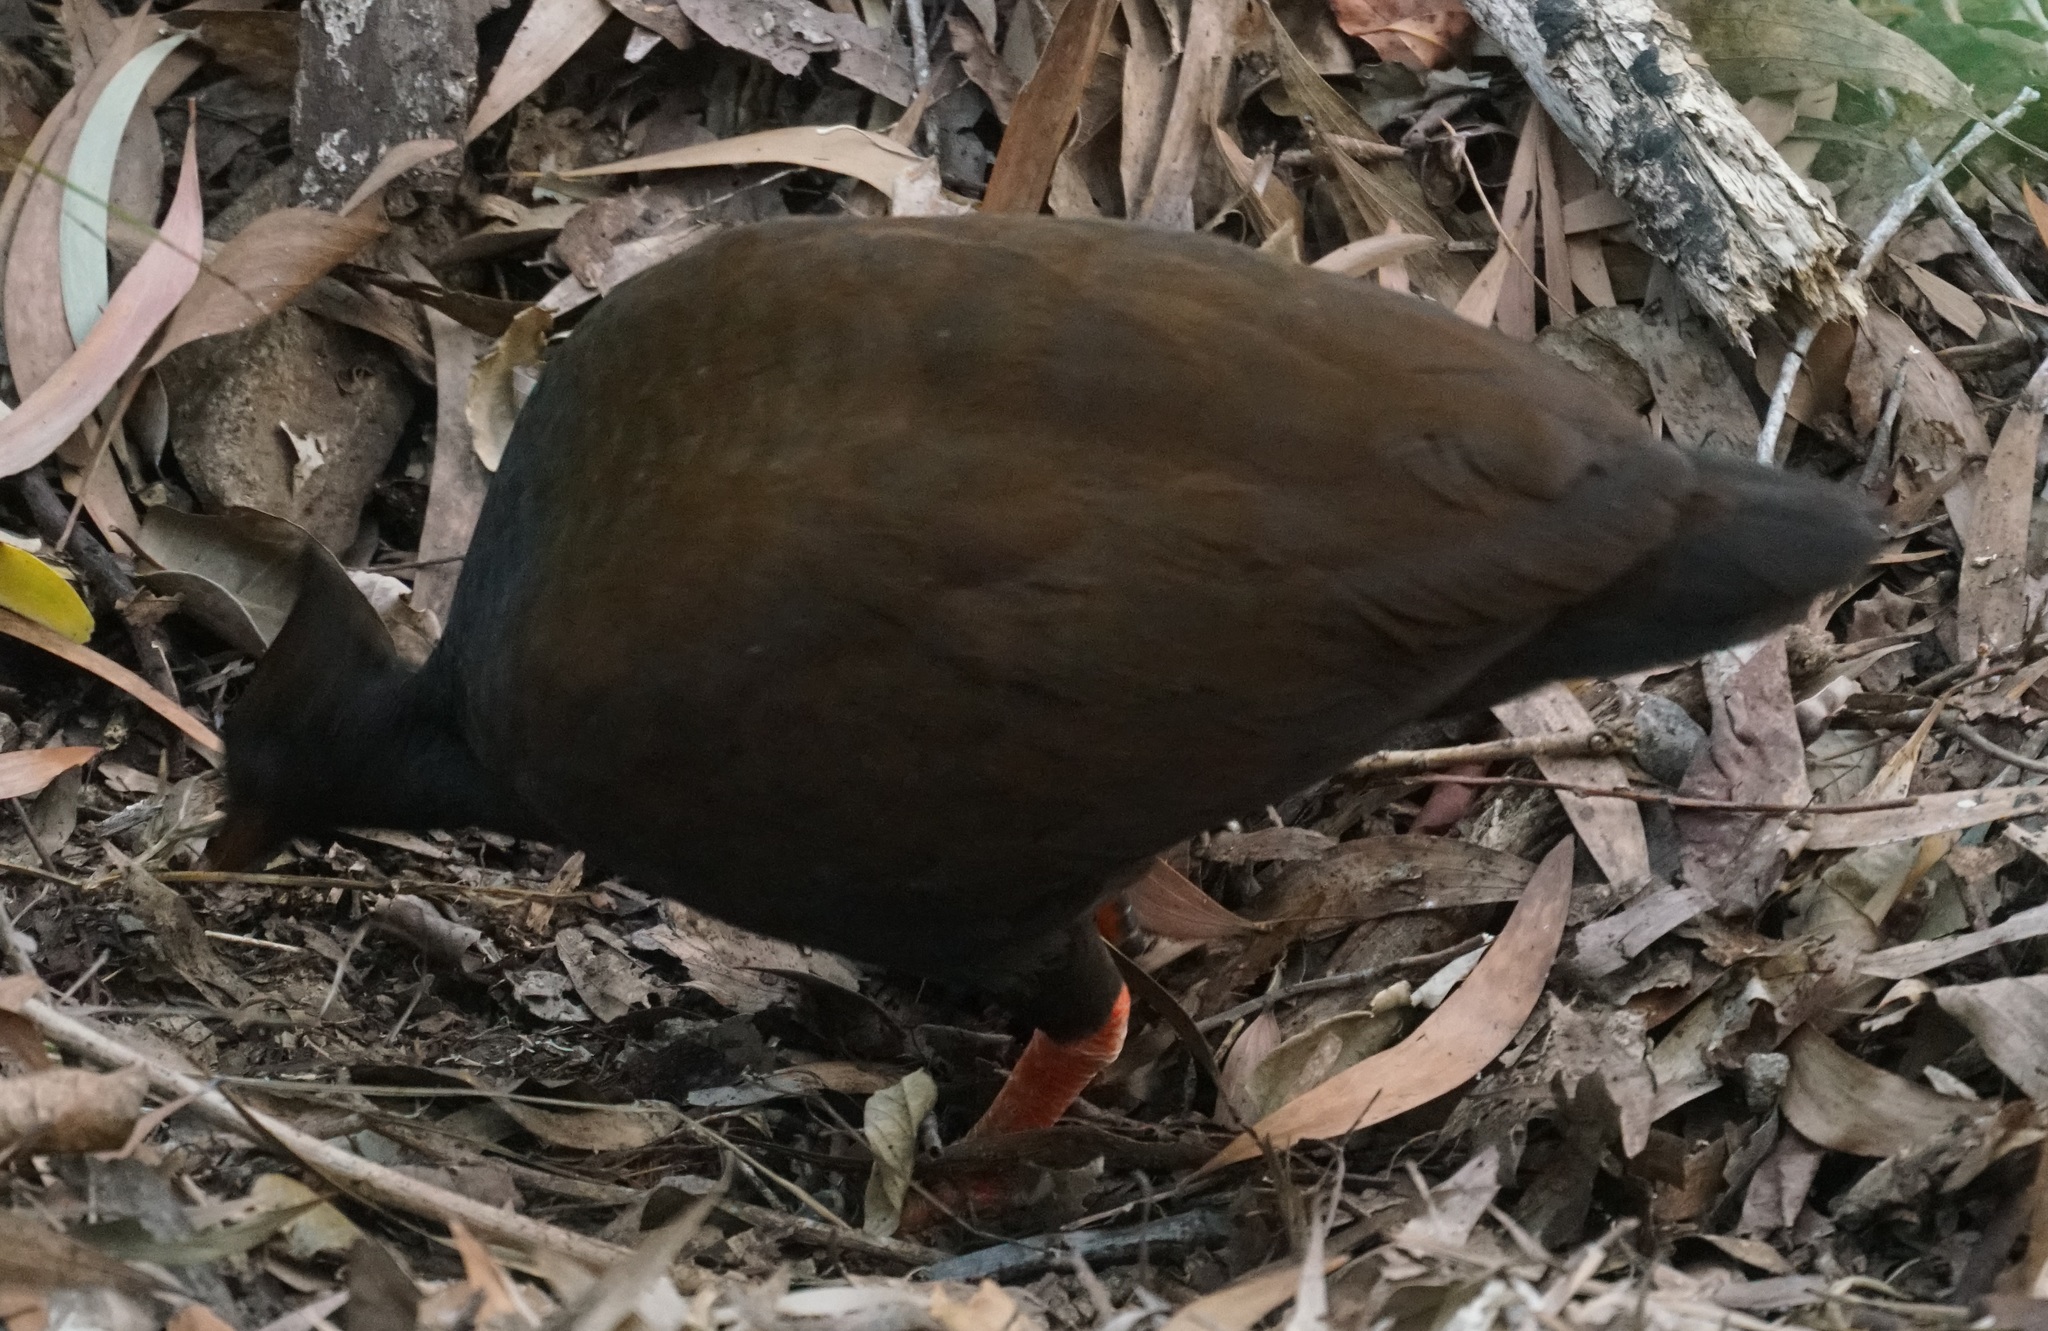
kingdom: Animalia
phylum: Chordata
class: Aves
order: Galliformes
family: Megapodiidae
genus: Megapodius
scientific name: Megapodius reinwardt
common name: Orange-footed scrubfowl
